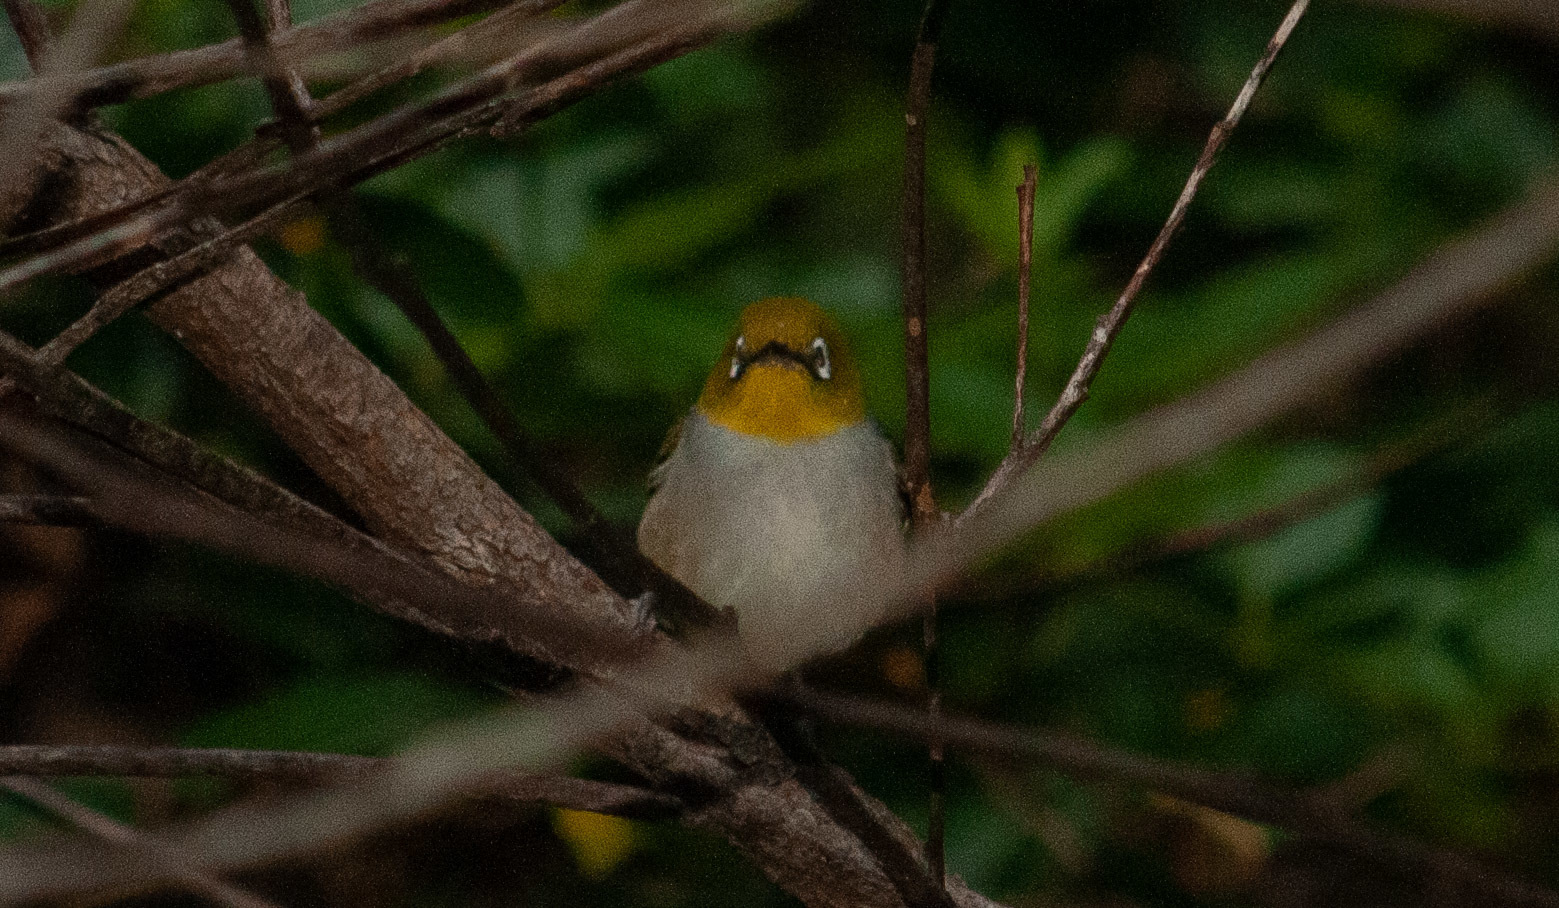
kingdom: Animalia
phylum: Chordata
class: Aves
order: Passeriformes
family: Zosteropidae
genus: Zosterops
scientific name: Zosterops lateralis
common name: Silvereye
